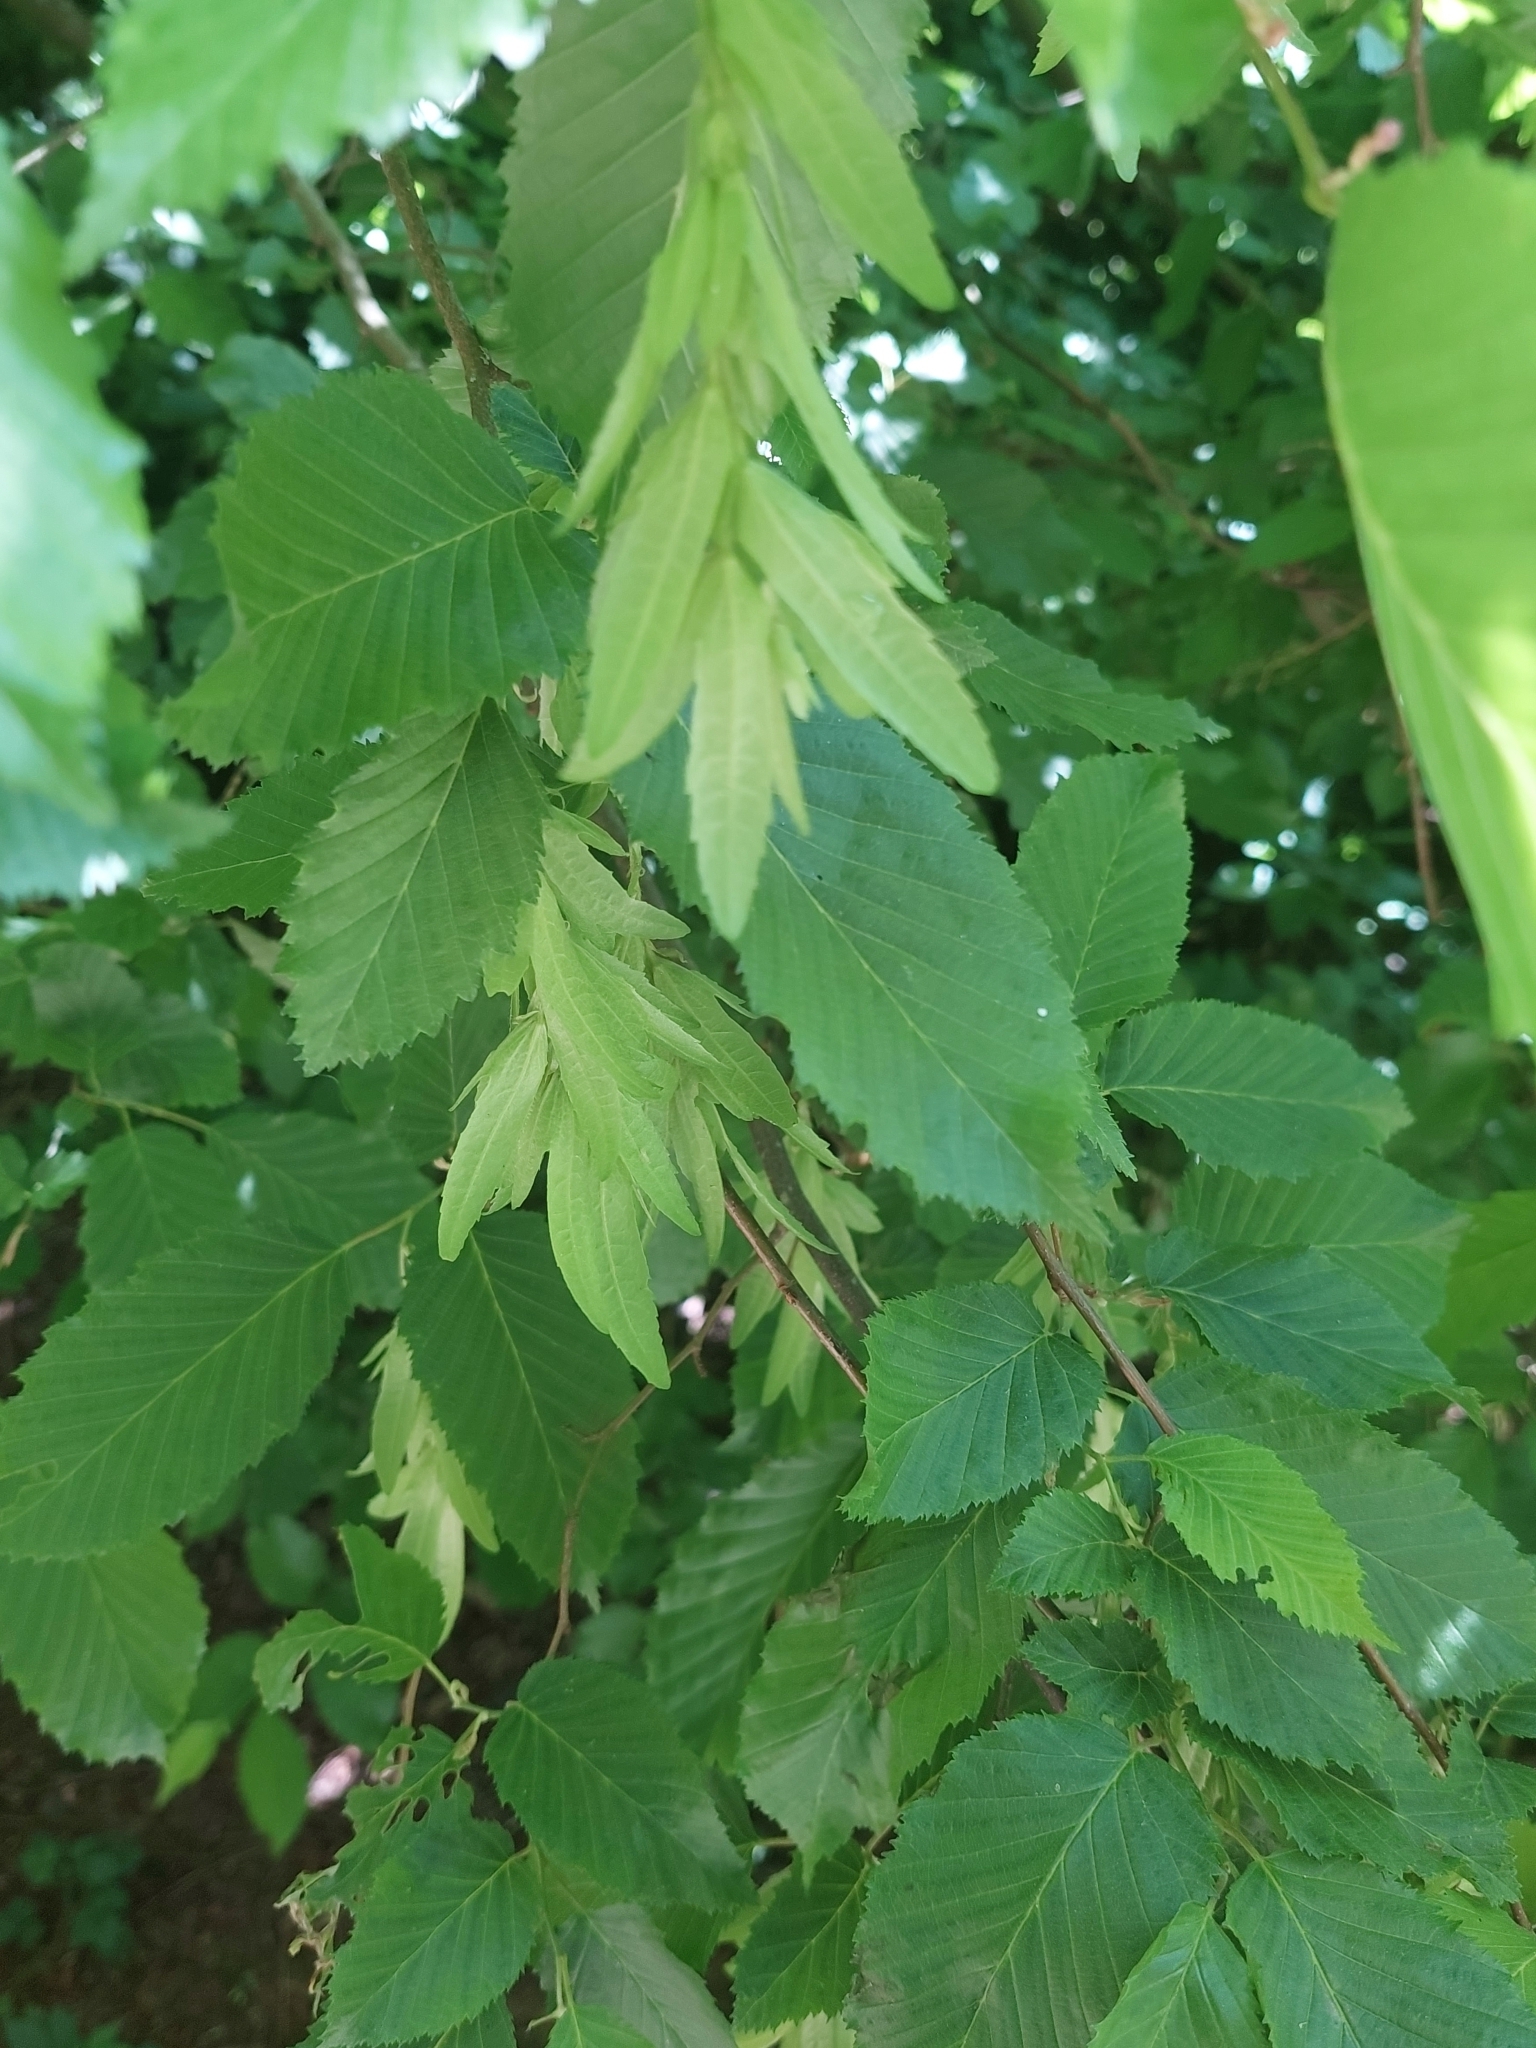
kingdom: Plantae
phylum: Tracheophyta
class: Magnoliopsida
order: Fagales
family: Betulaceae
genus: Carpinus
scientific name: Carpinus betulus
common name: Hornbeam
